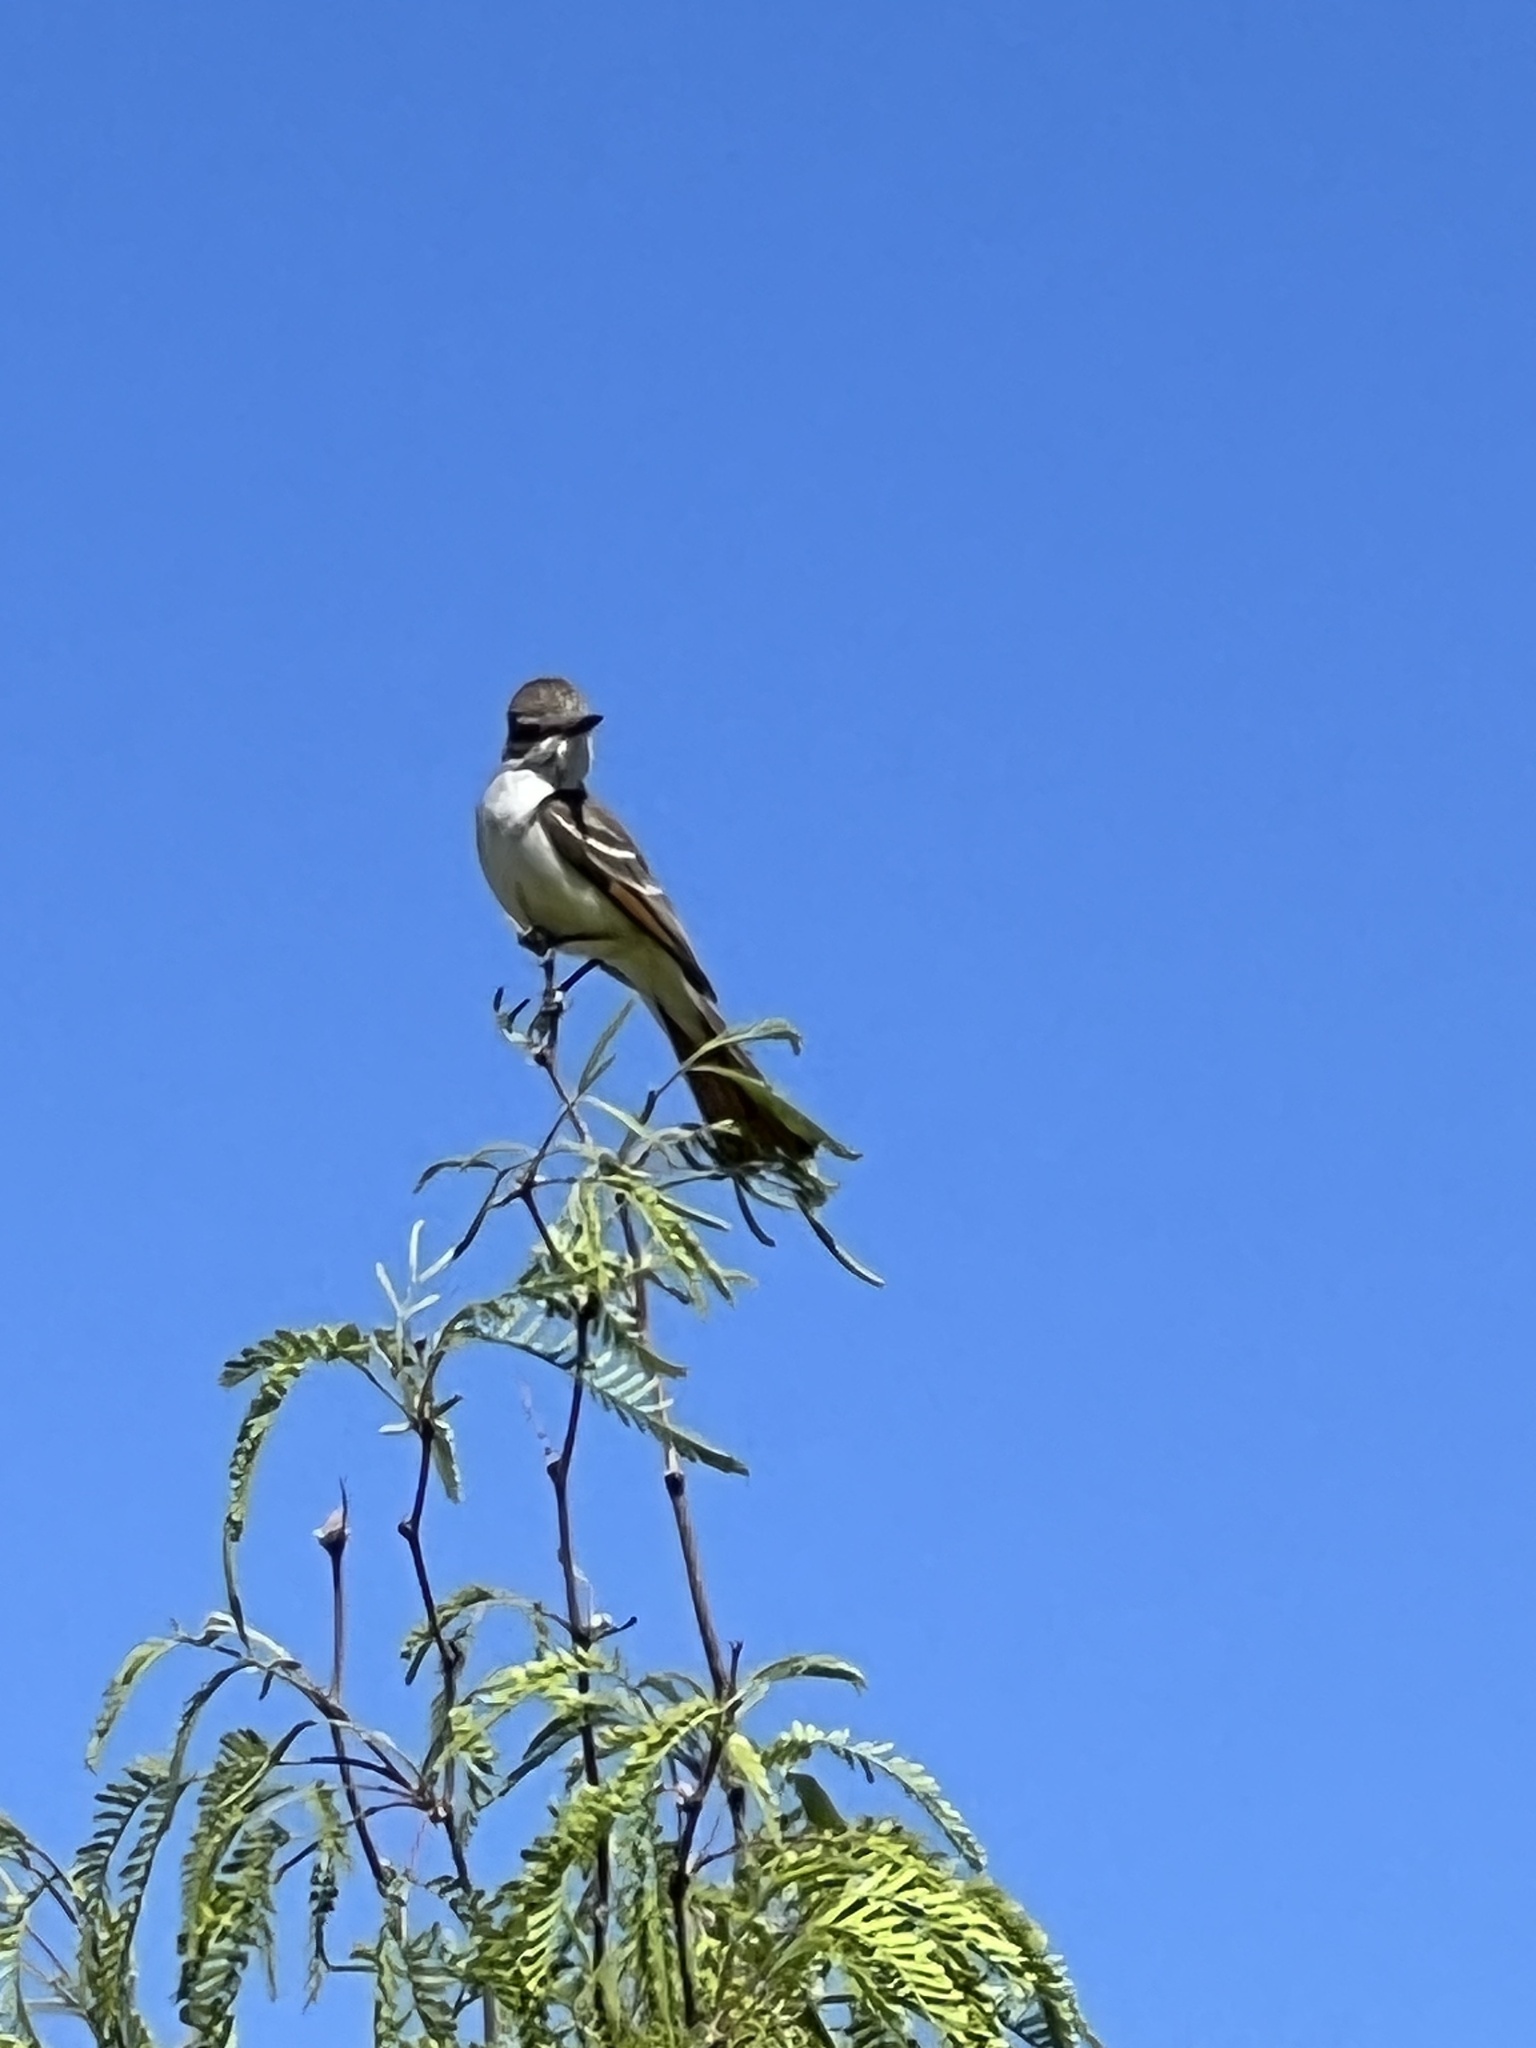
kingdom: Animalia
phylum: Chordata
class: Aves
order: Passeriformes
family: Tyrannidae
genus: Myiarchus
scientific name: Myiarchus cinerascens
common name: Ash-throated flycatcher
